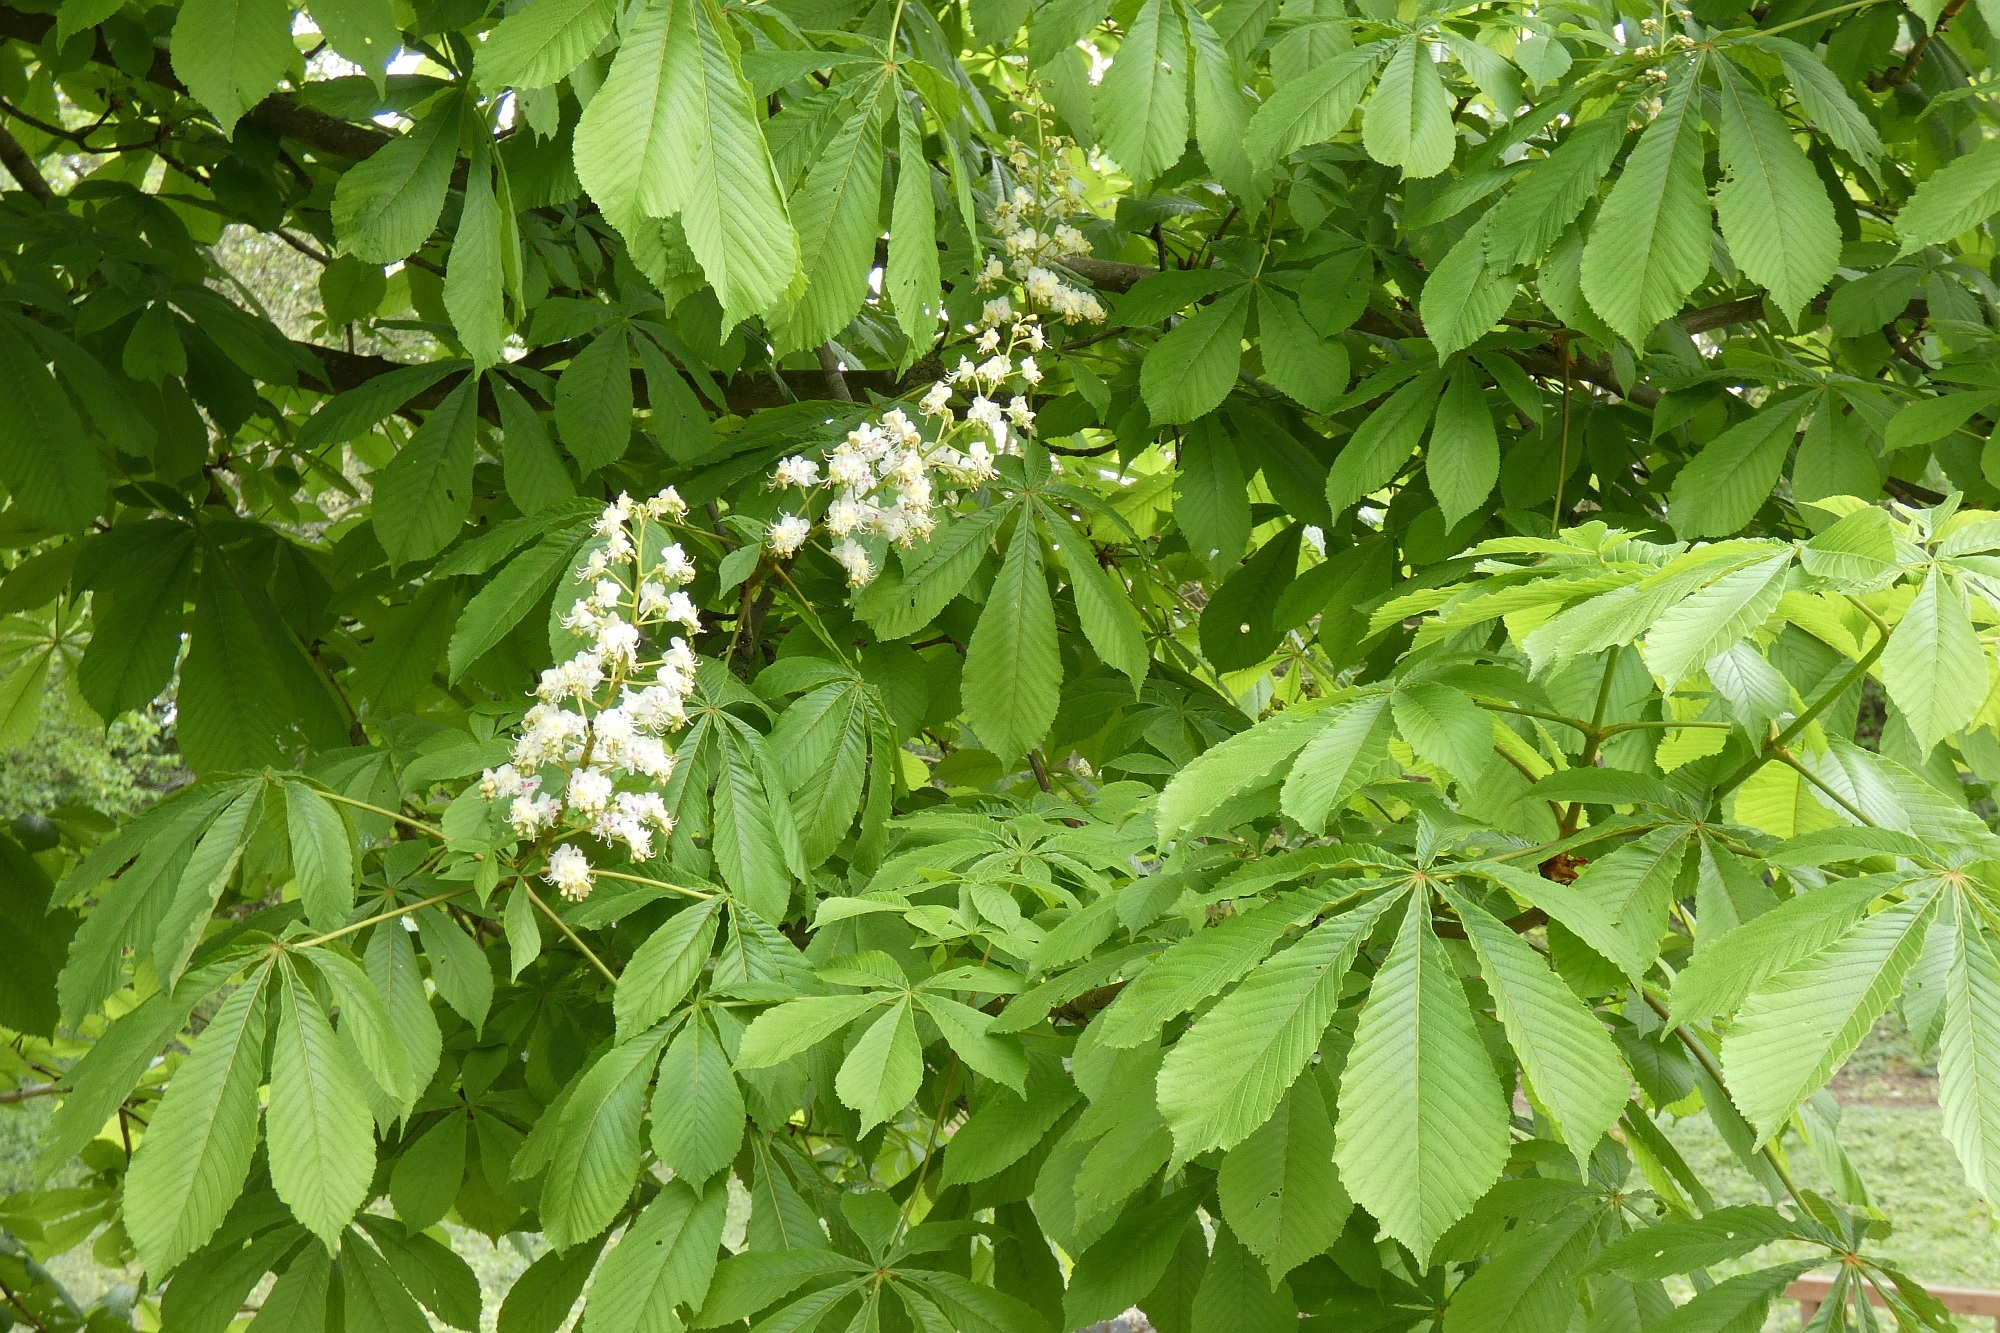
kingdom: Plantae
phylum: Tracheophyta
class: Magnoliopsida
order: Sapindales
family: Sapindaceae
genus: Aesculus
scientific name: Aesculus hippocastanum
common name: Horse-chestnut
